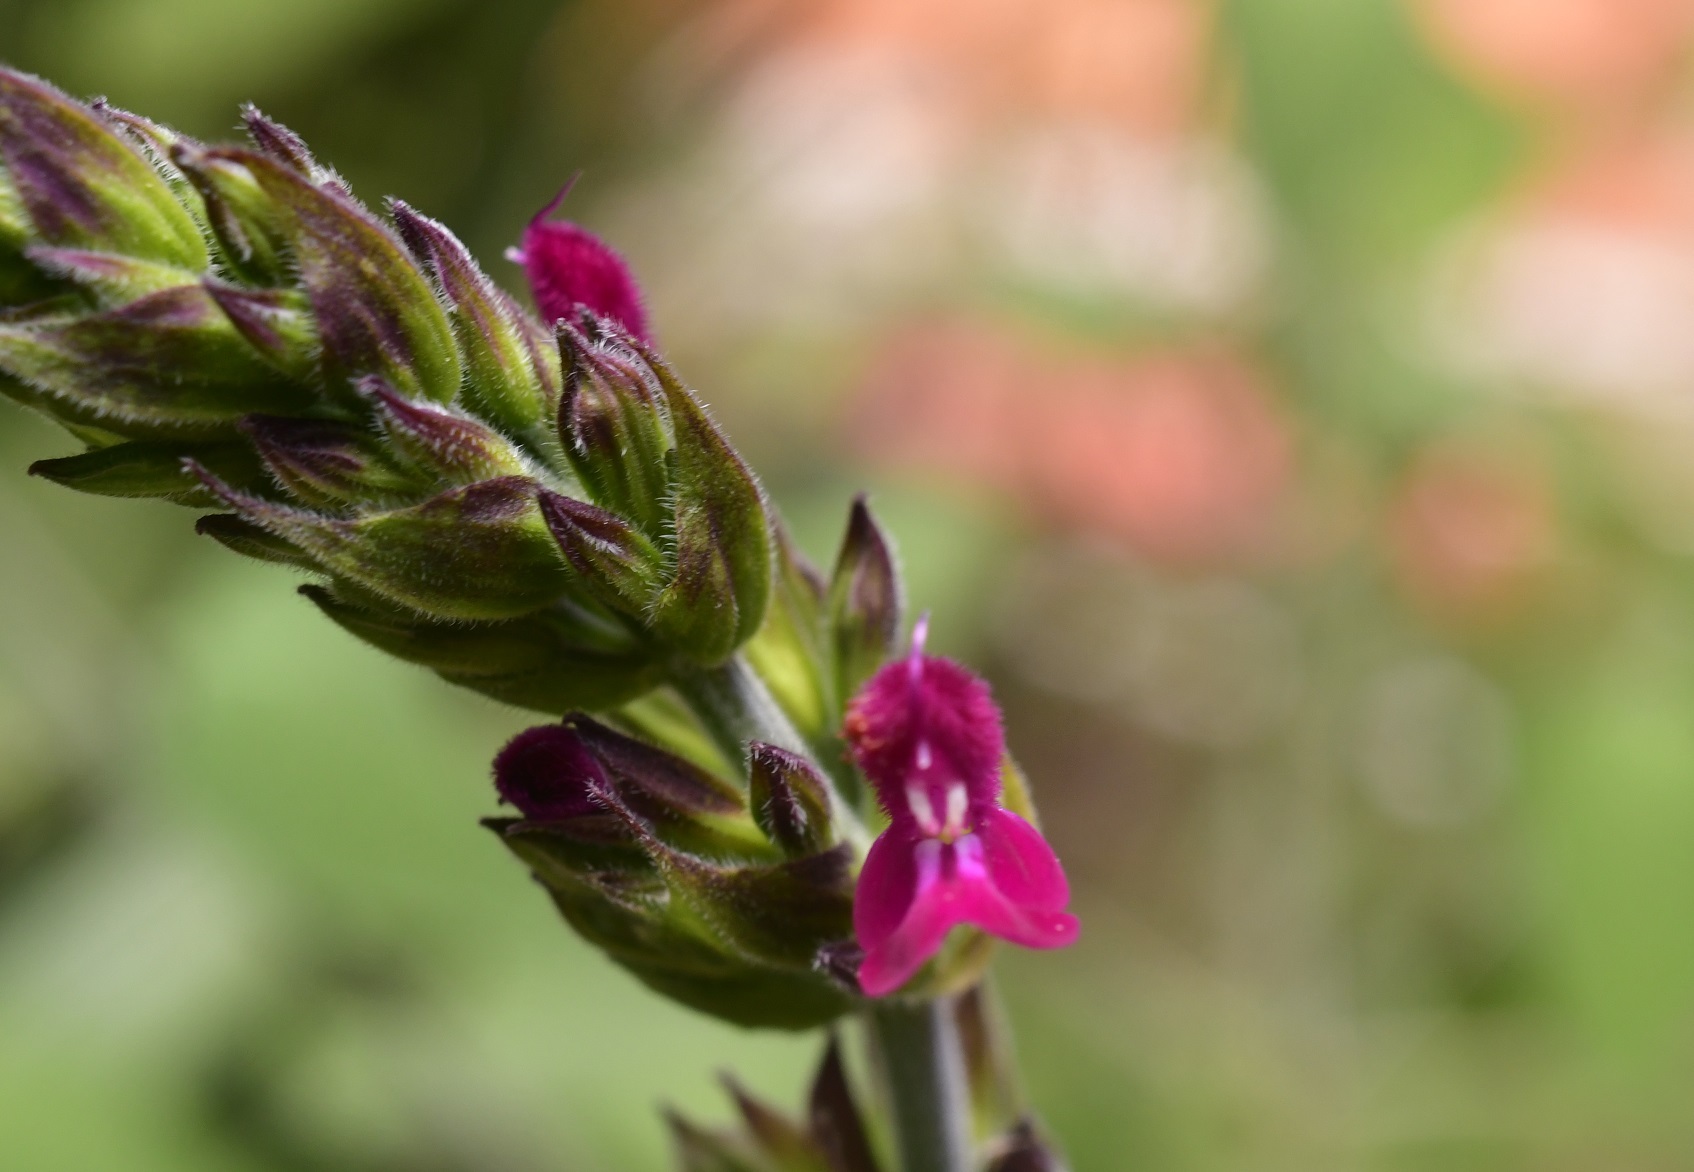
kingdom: Plantae
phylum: Tracheophyta
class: Magnoliopsida
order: Lamiales
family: Lamiaceae
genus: Salvia
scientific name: Salvia chiapensis
